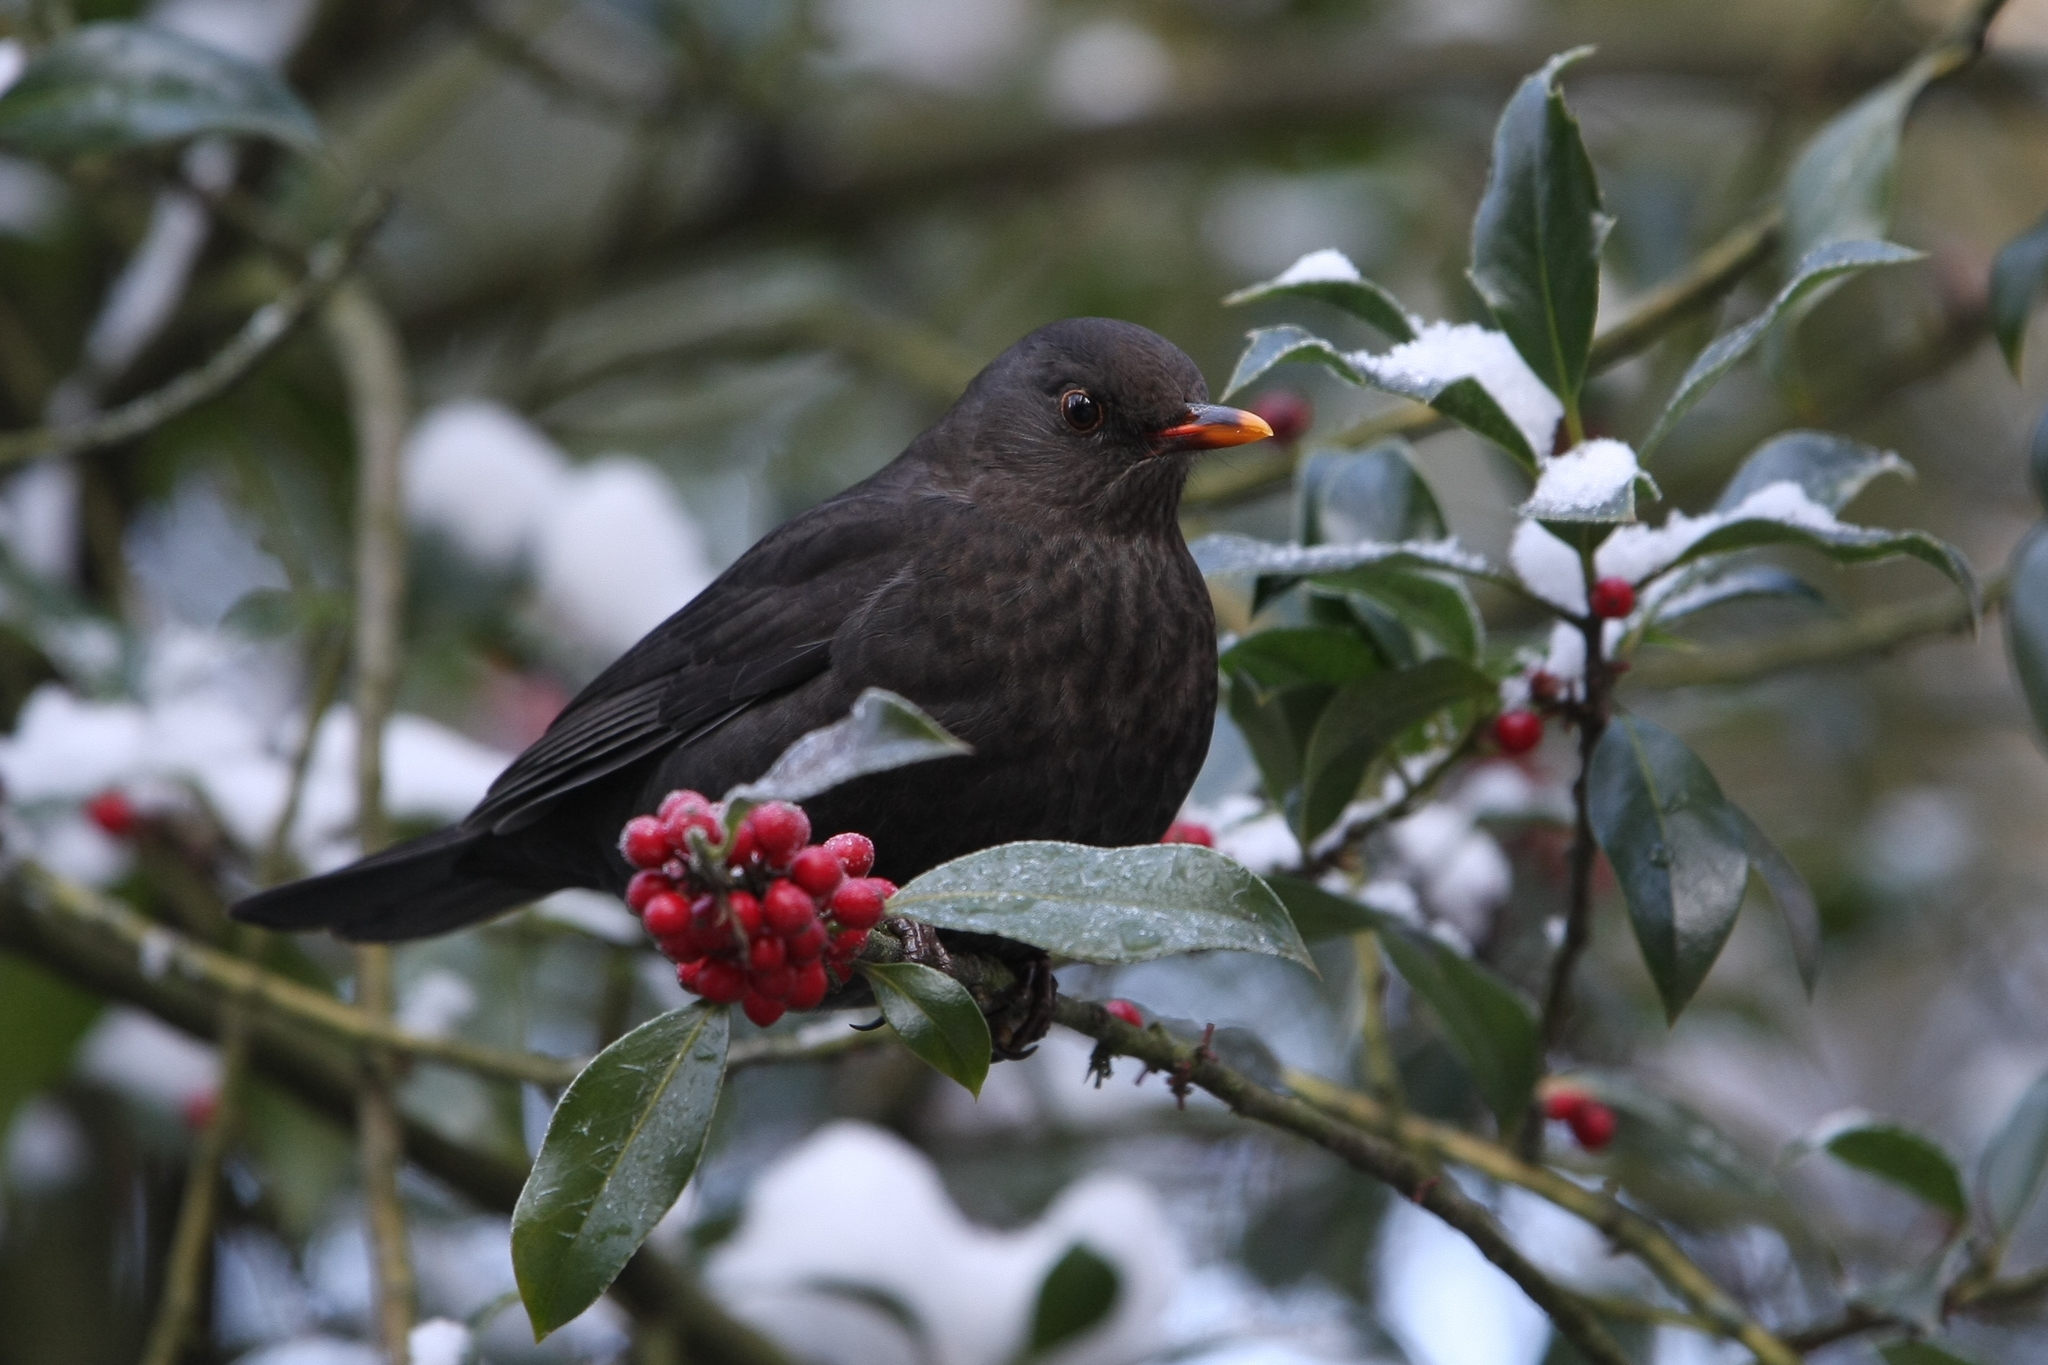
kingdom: Animalia
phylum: Chordata
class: Aves
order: Passeriformes
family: Turdidae
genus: Turdus
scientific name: Turdus merula
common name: Common blackbird
